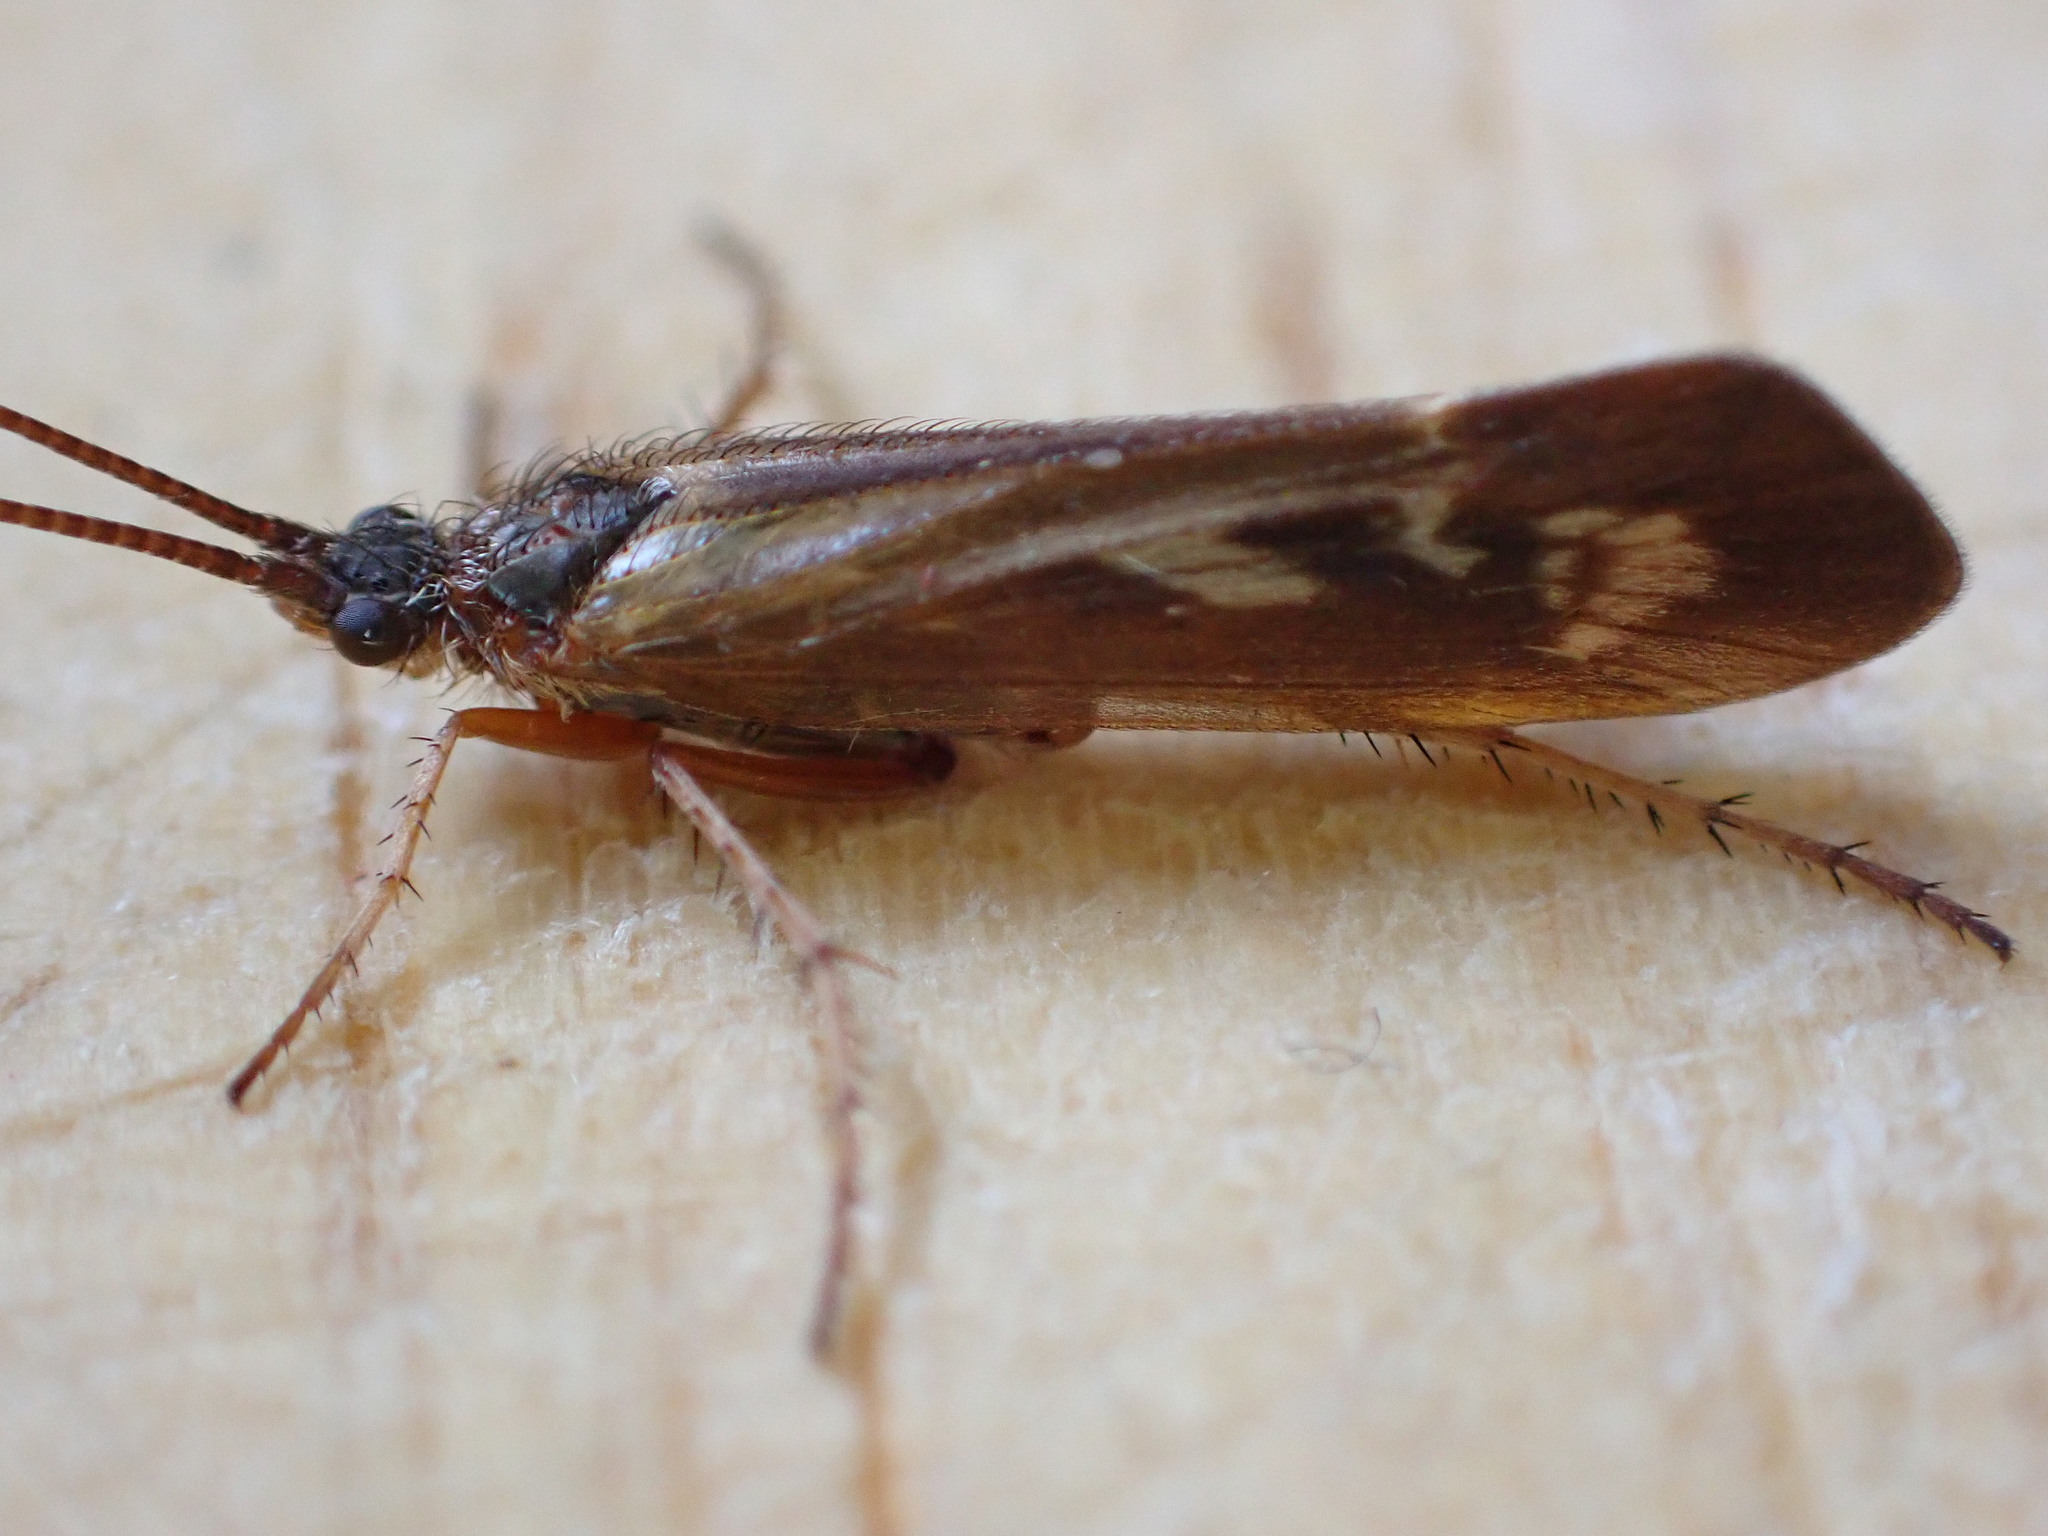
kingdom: Animalia
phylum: Arthropoda
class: Insecta
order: Trichoptera
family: Limnephilidae
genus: Limnephilus
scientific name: Limnephilus auricula
